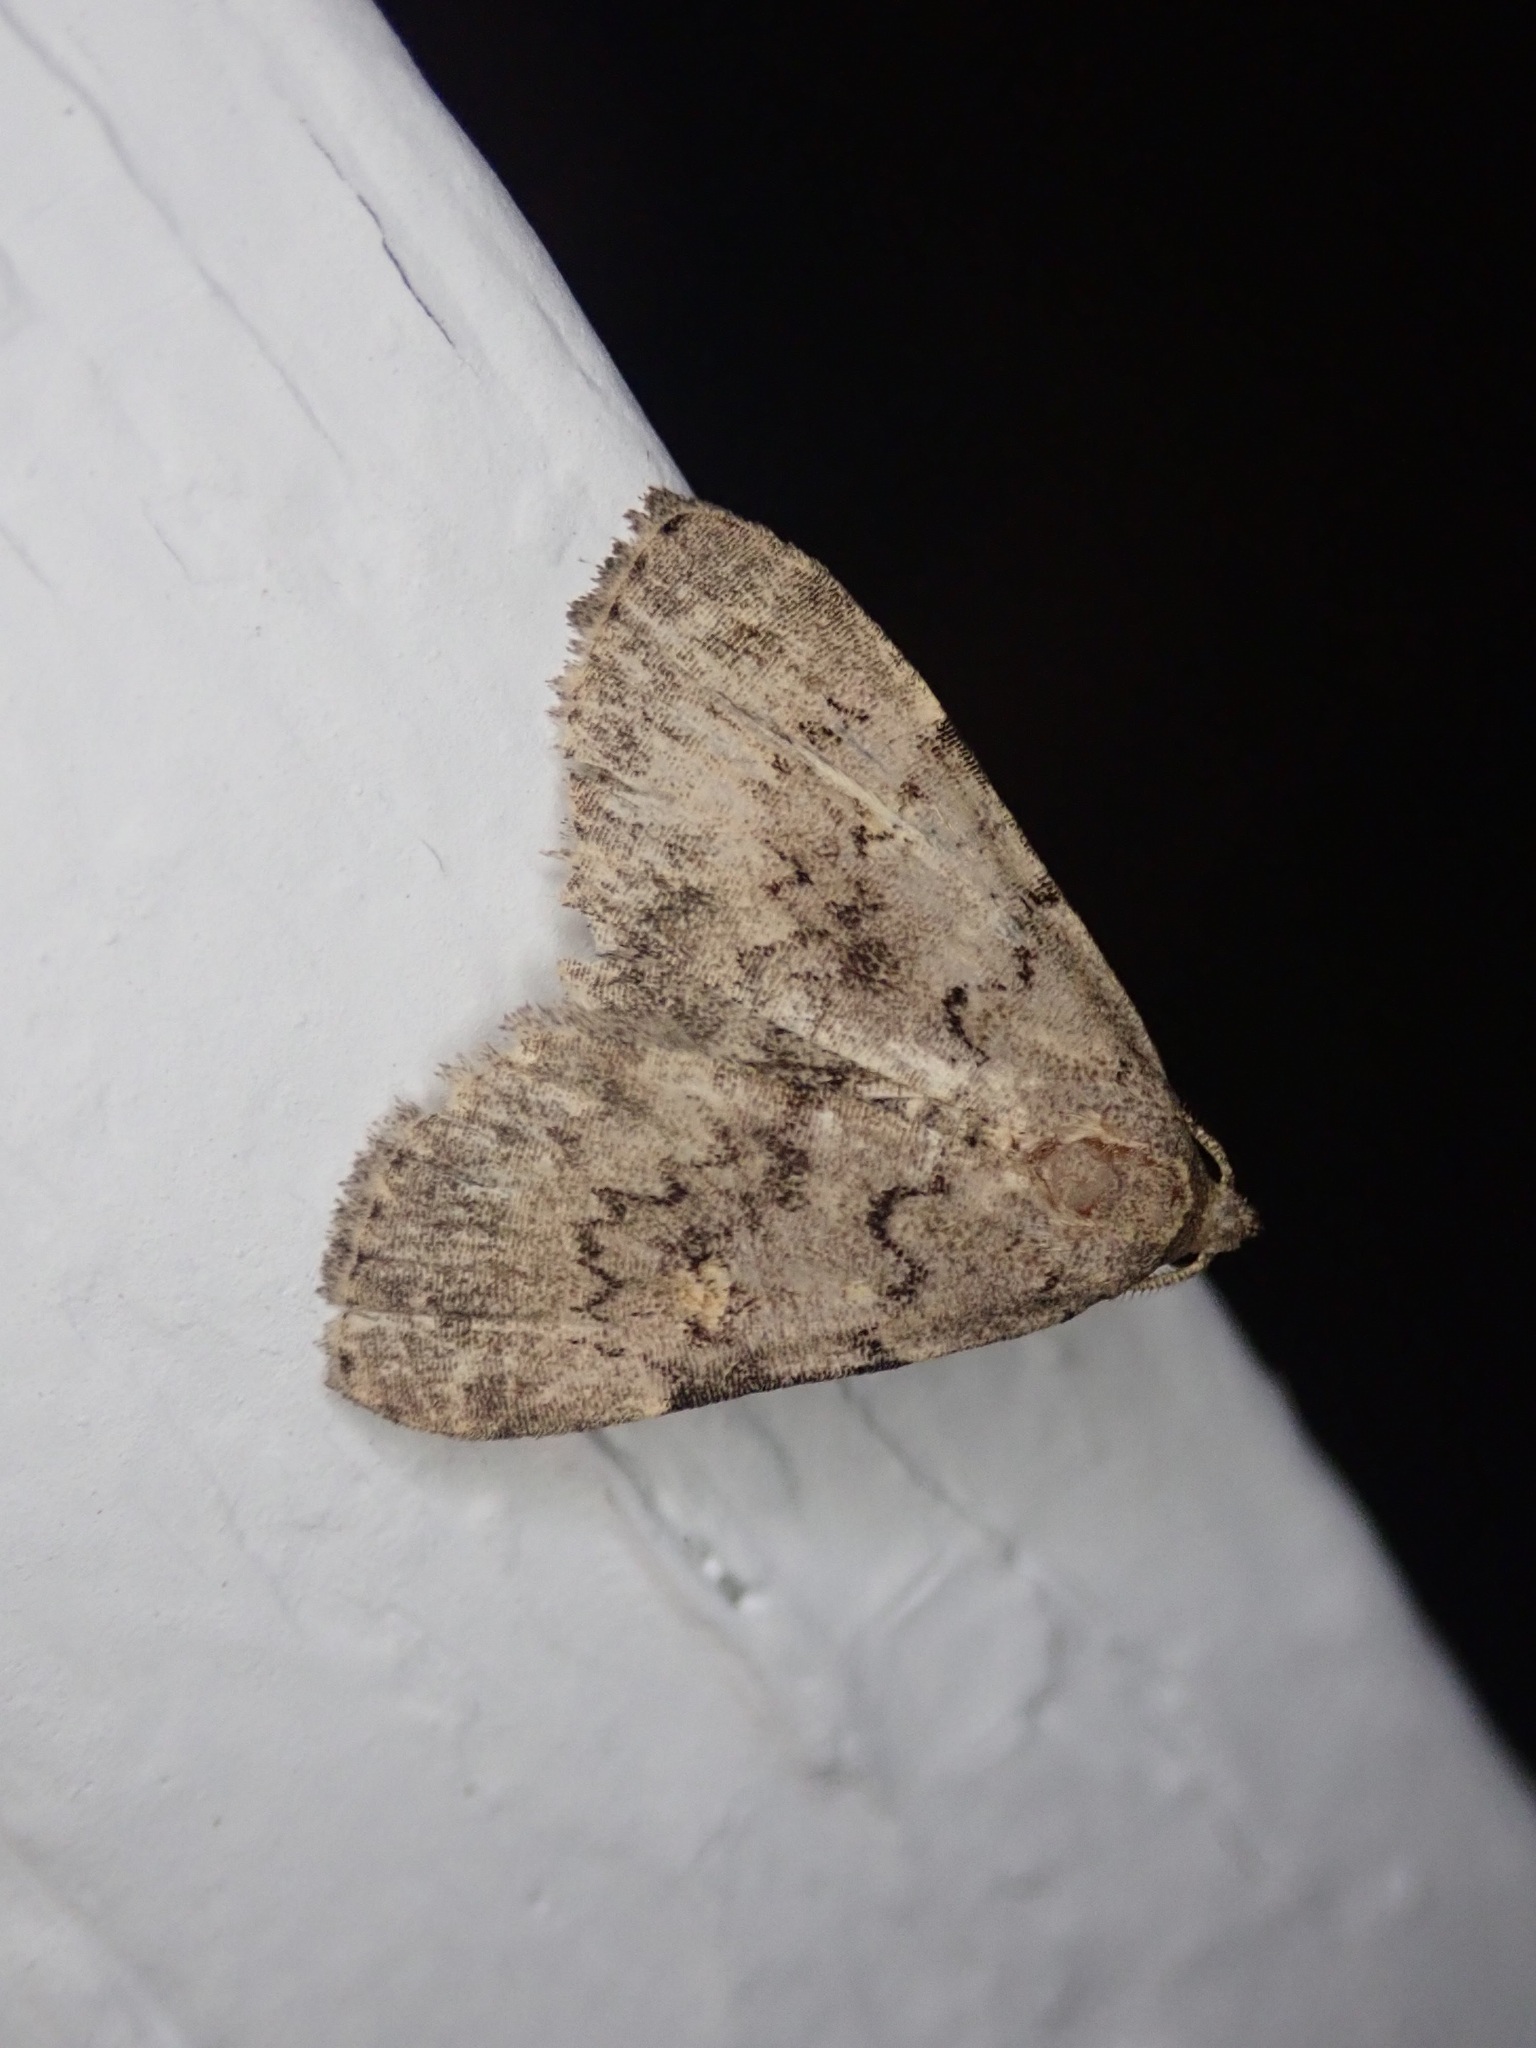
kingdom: Animalia
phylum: Arthropoda
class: Insecta
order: Lepidoptera
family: Erebidae
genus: Idia
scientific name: Idia aemula
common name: Common idia moth
